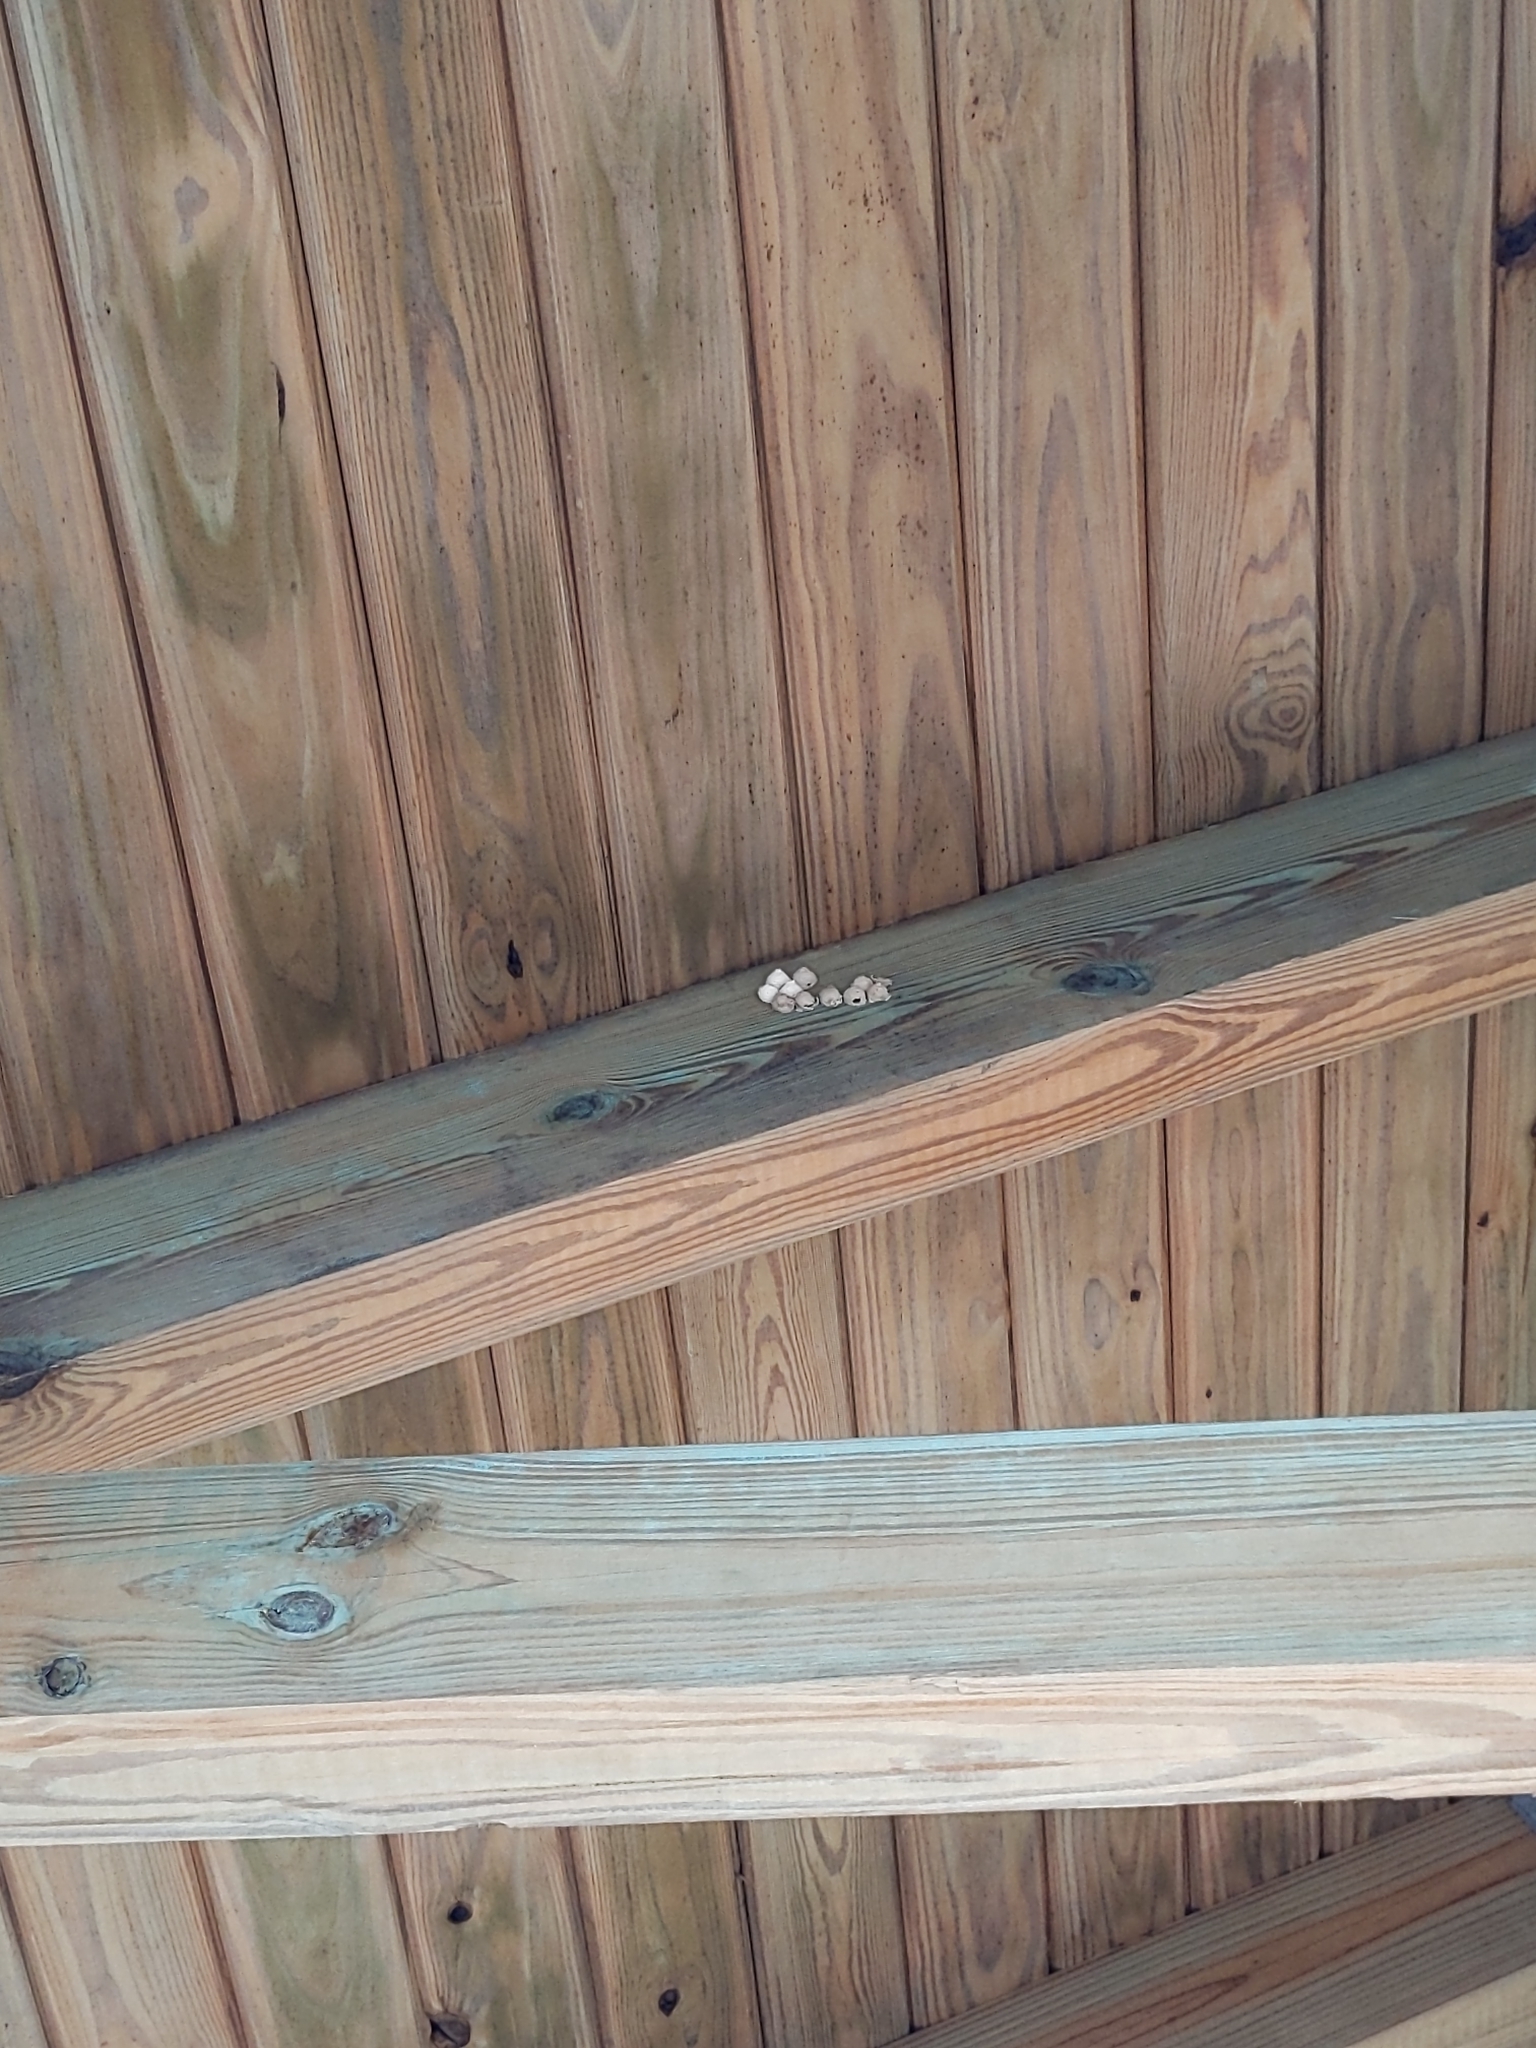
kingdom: Animalia
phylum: Arthropoda
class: Insecta
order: Hymenoptera
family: Vespidae
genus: Eumenes
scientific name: Eumenes fraternus
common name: Fraternal potter wasp
